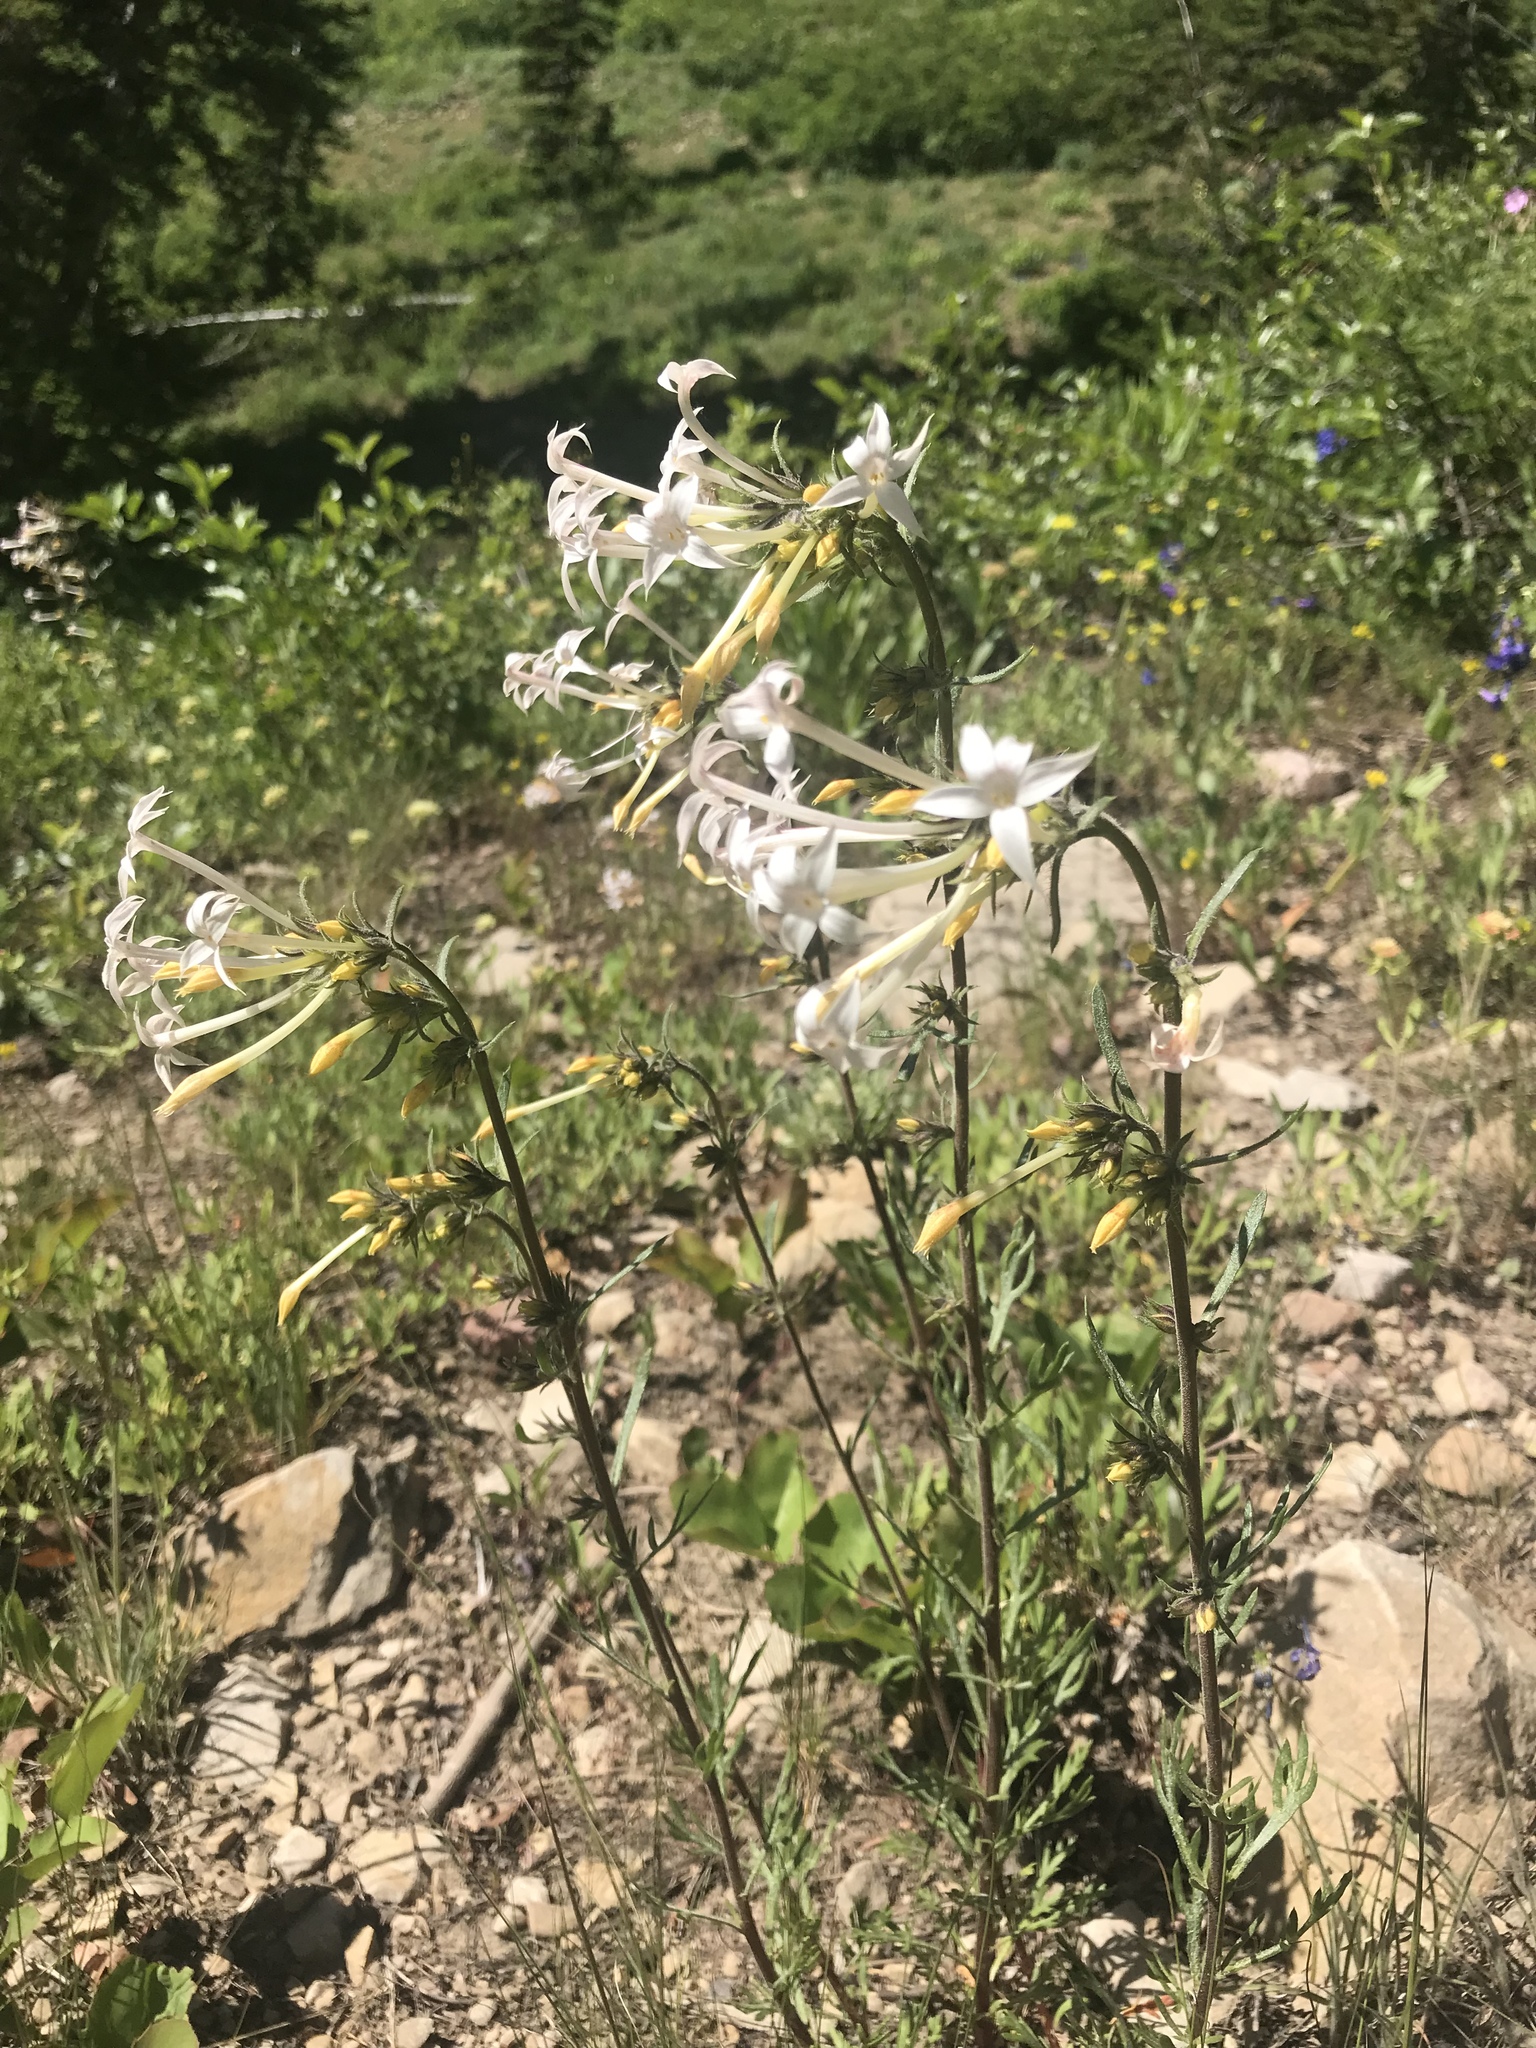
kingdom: Plantae
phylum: Tracheophyta
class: Magnoliopsida
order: Ericales
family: Polemoniaceae
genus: Ipomopsis
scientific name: Ipomopsis tenuituba
